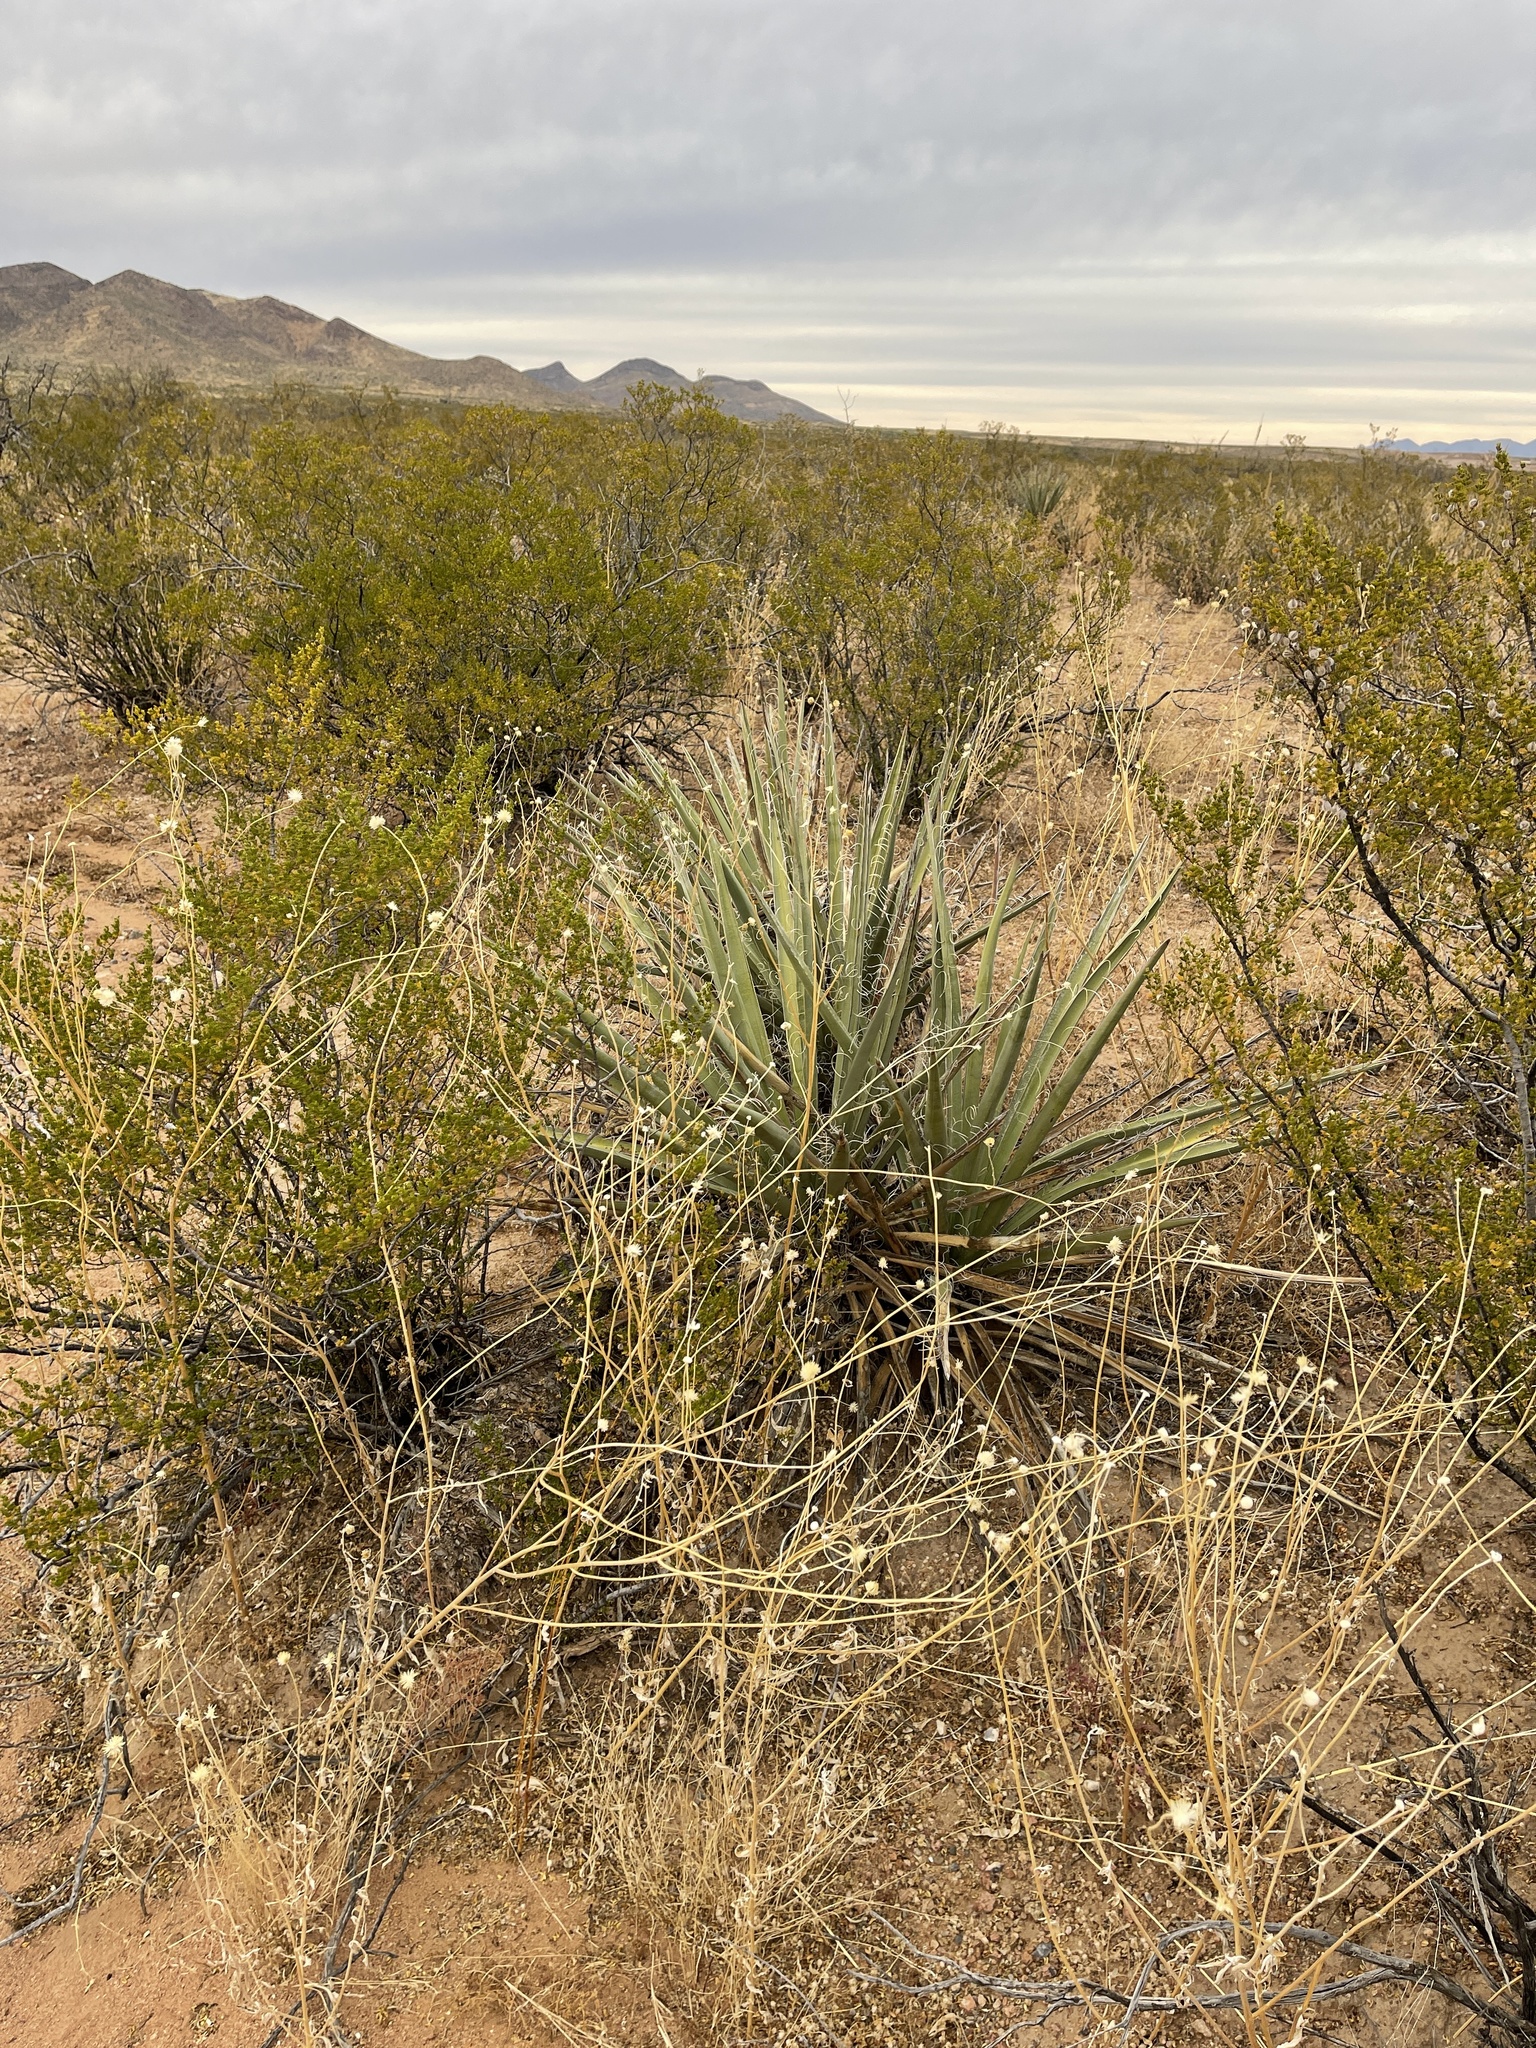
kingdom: Plantae
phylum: Tracheophyta
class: Liliopsida
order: Asparagales
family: Asparagaceae
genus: Yucca
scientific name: Yucca baccata
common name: Banana yucca
